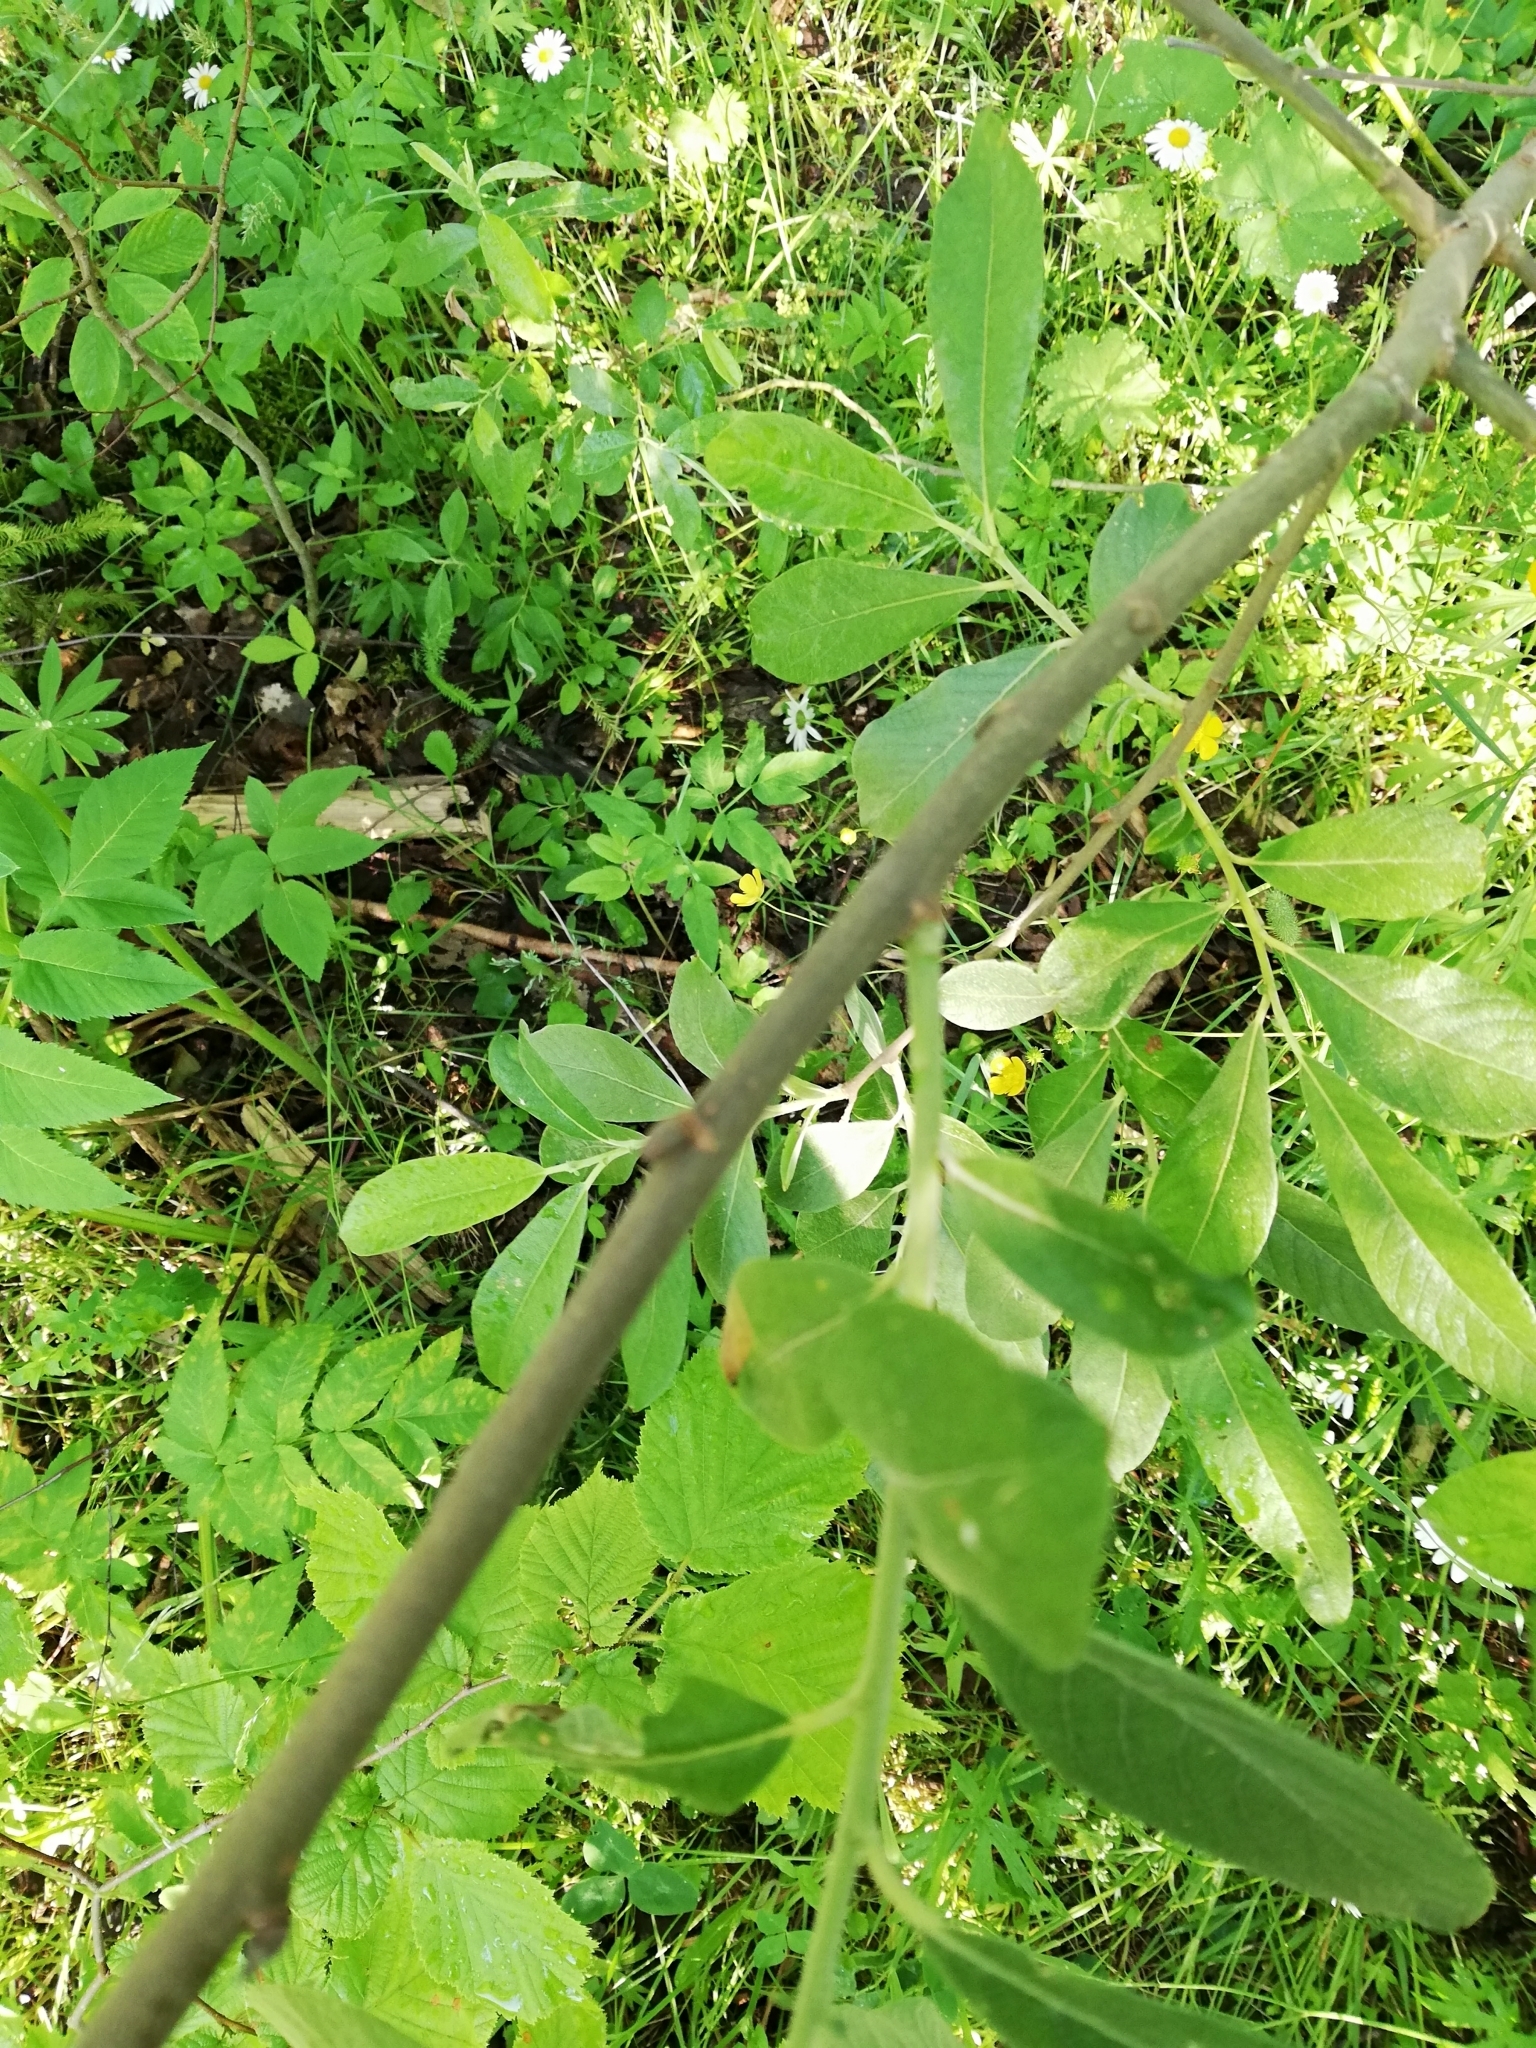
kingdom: Plantae
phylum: Tracheophyta
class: Magnoliopsida
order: Malpighiales
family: Salicaceae
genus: Salix
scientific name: Salix cinerea
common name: Common sallow
